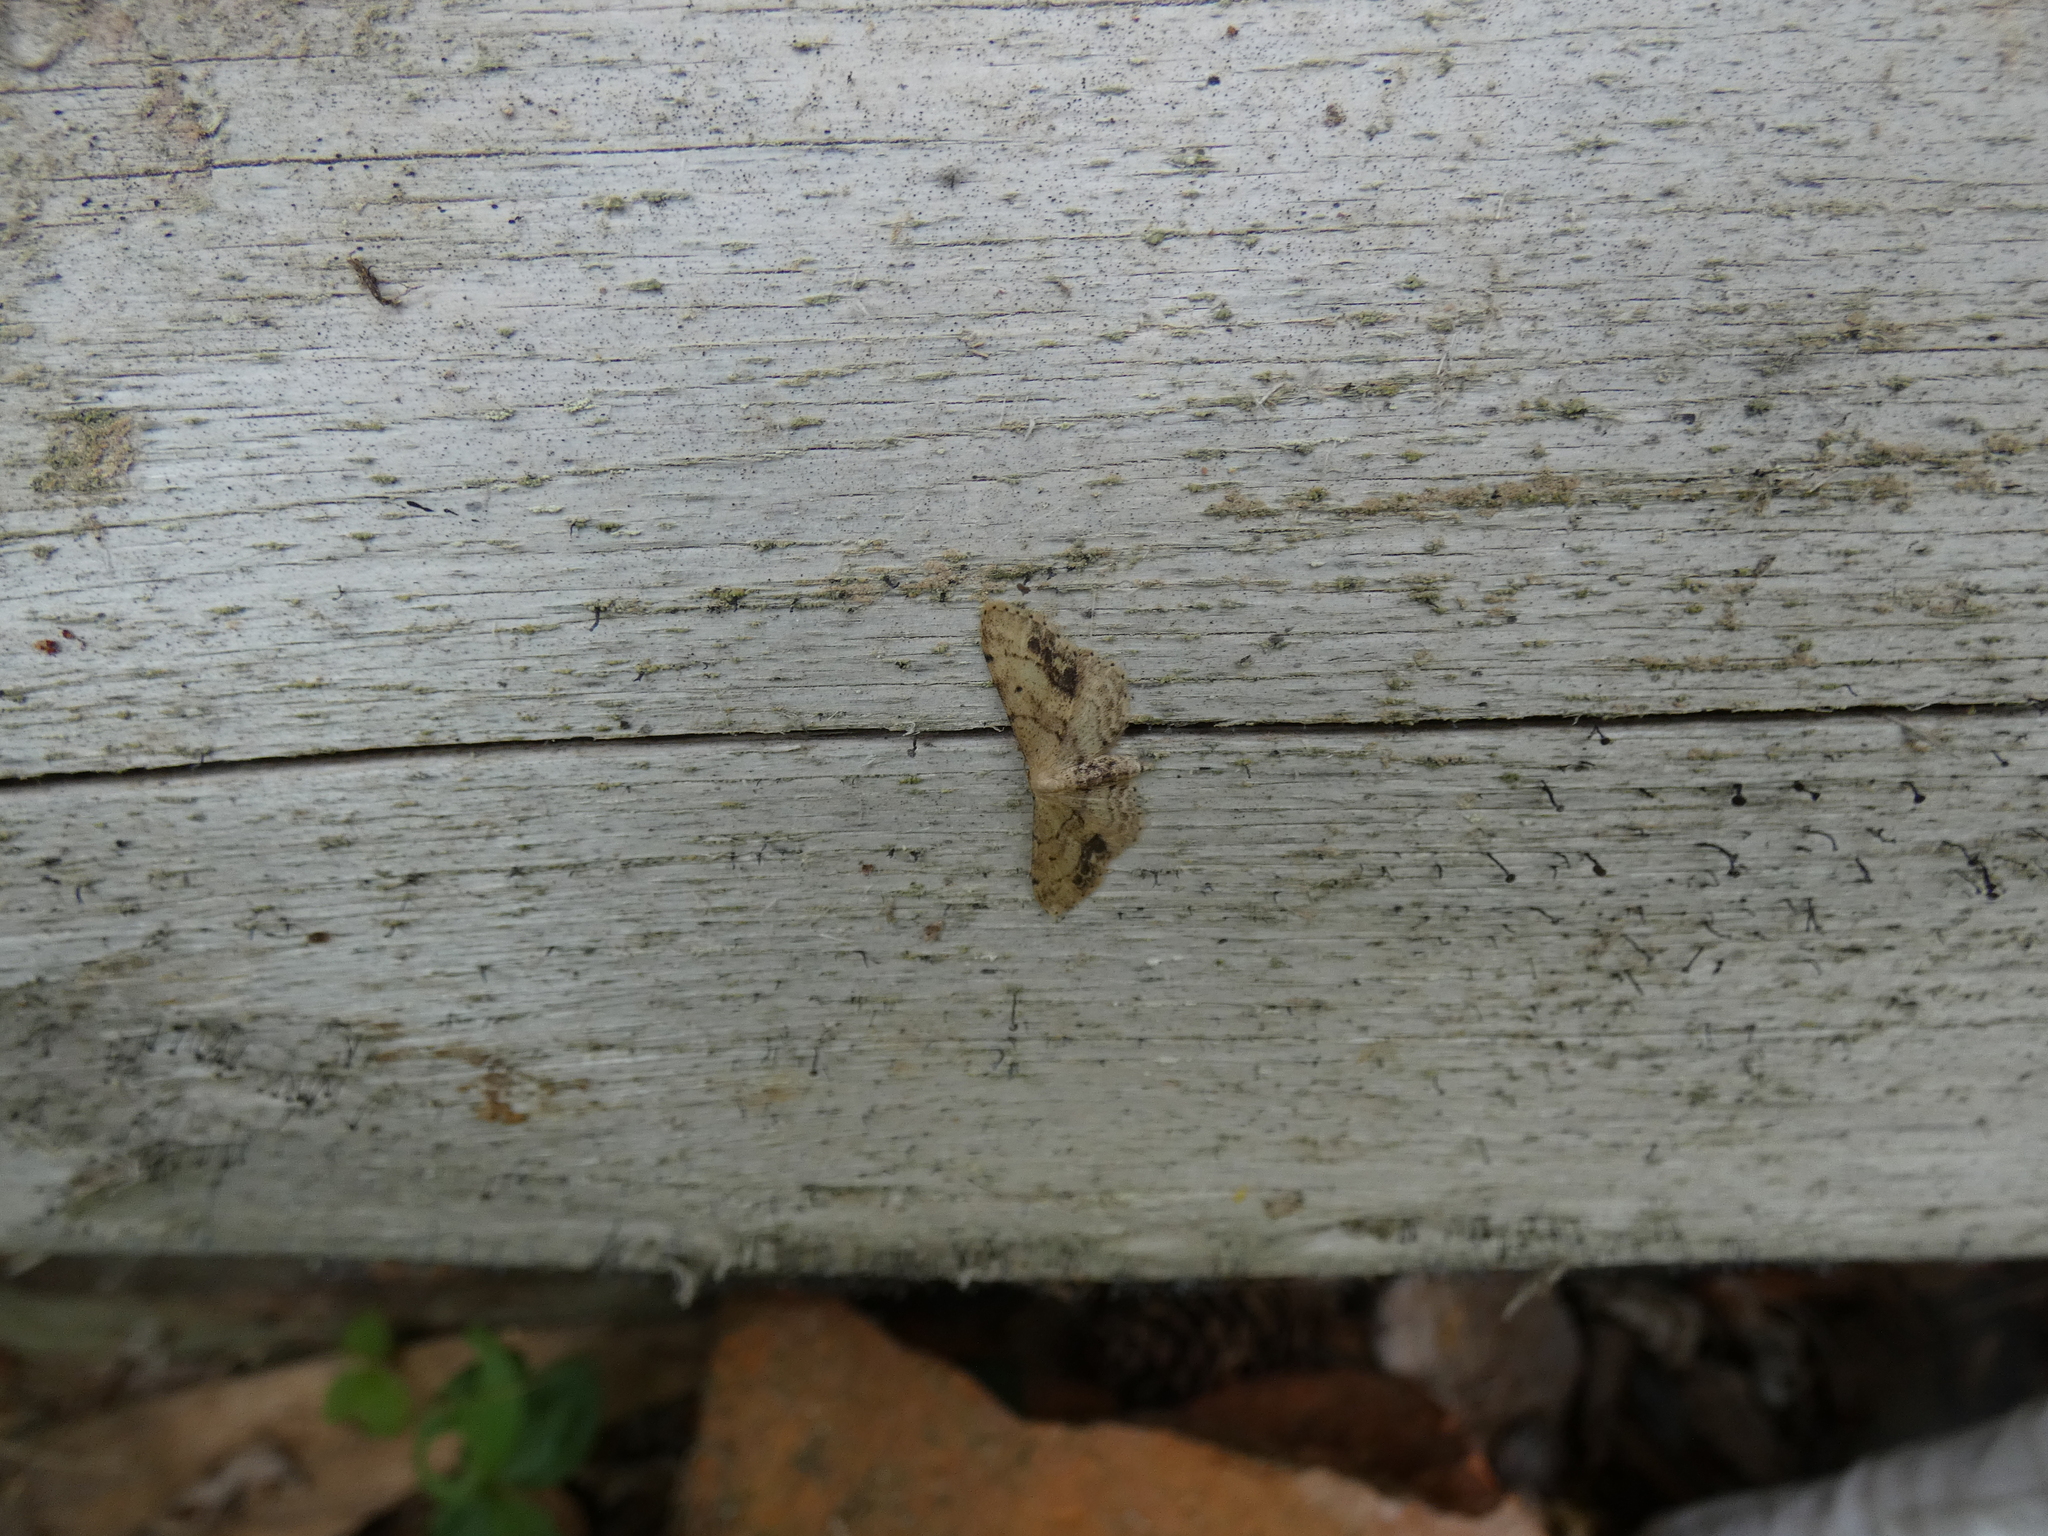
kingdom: Animalia
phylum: Arthropoda
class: Insecta
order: Lepidoptera
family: Geometridae
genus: Idaea
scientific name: Idaea dimidiata
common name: Single-dotted wave
